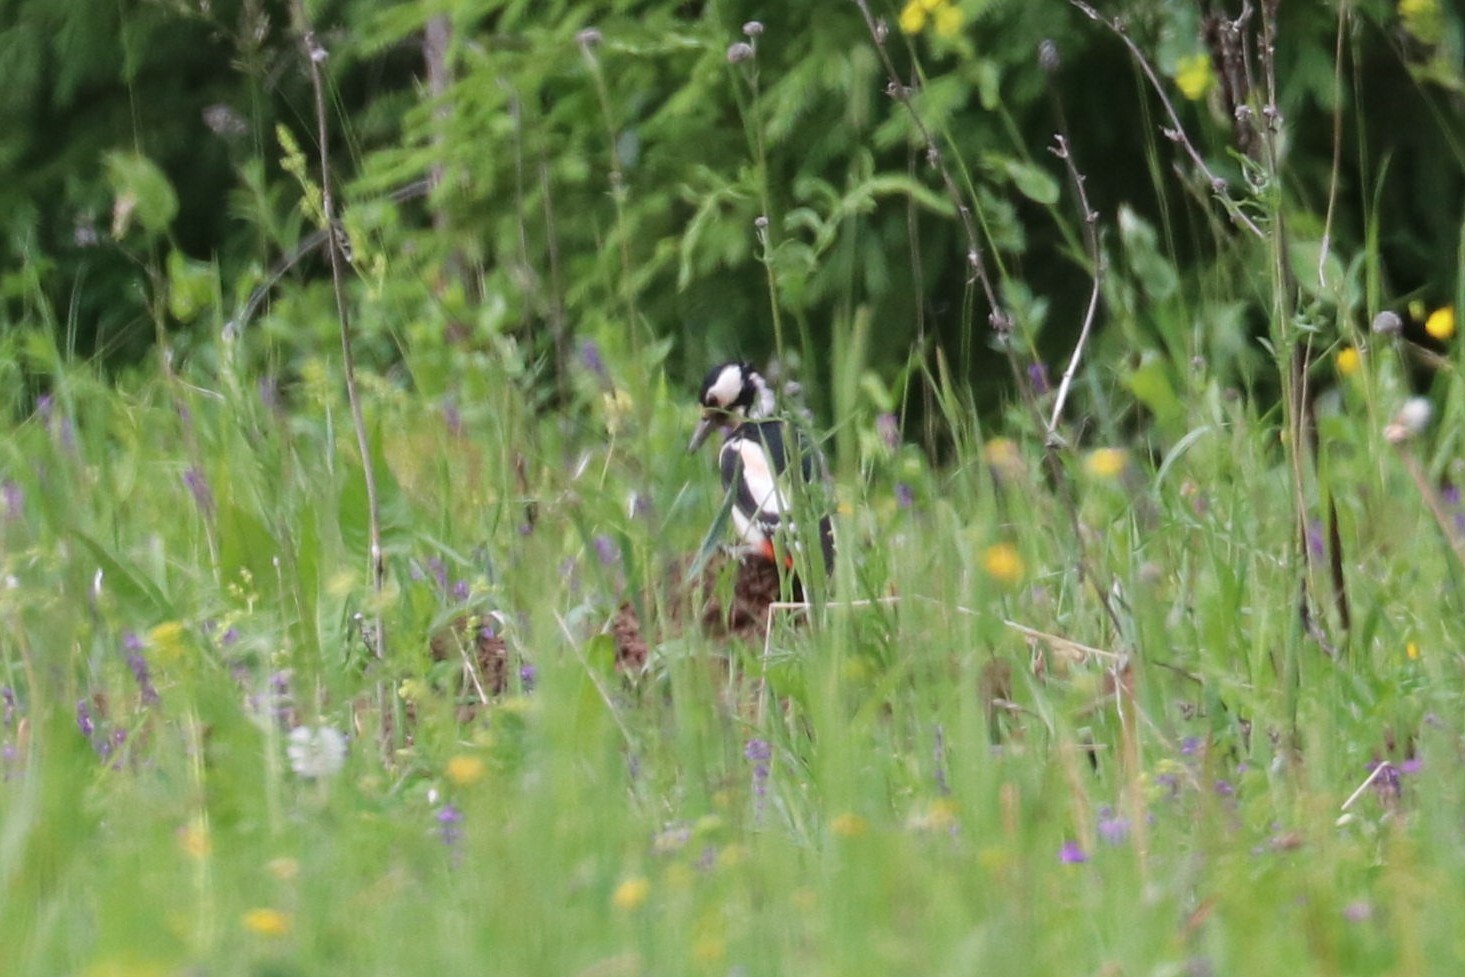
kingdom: Animalia
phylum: Chordata
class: Aves
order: Piciformes
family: Picidae
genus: Dendrocopos
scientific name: Dendrocopos major
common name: Great spotted woodpecker
